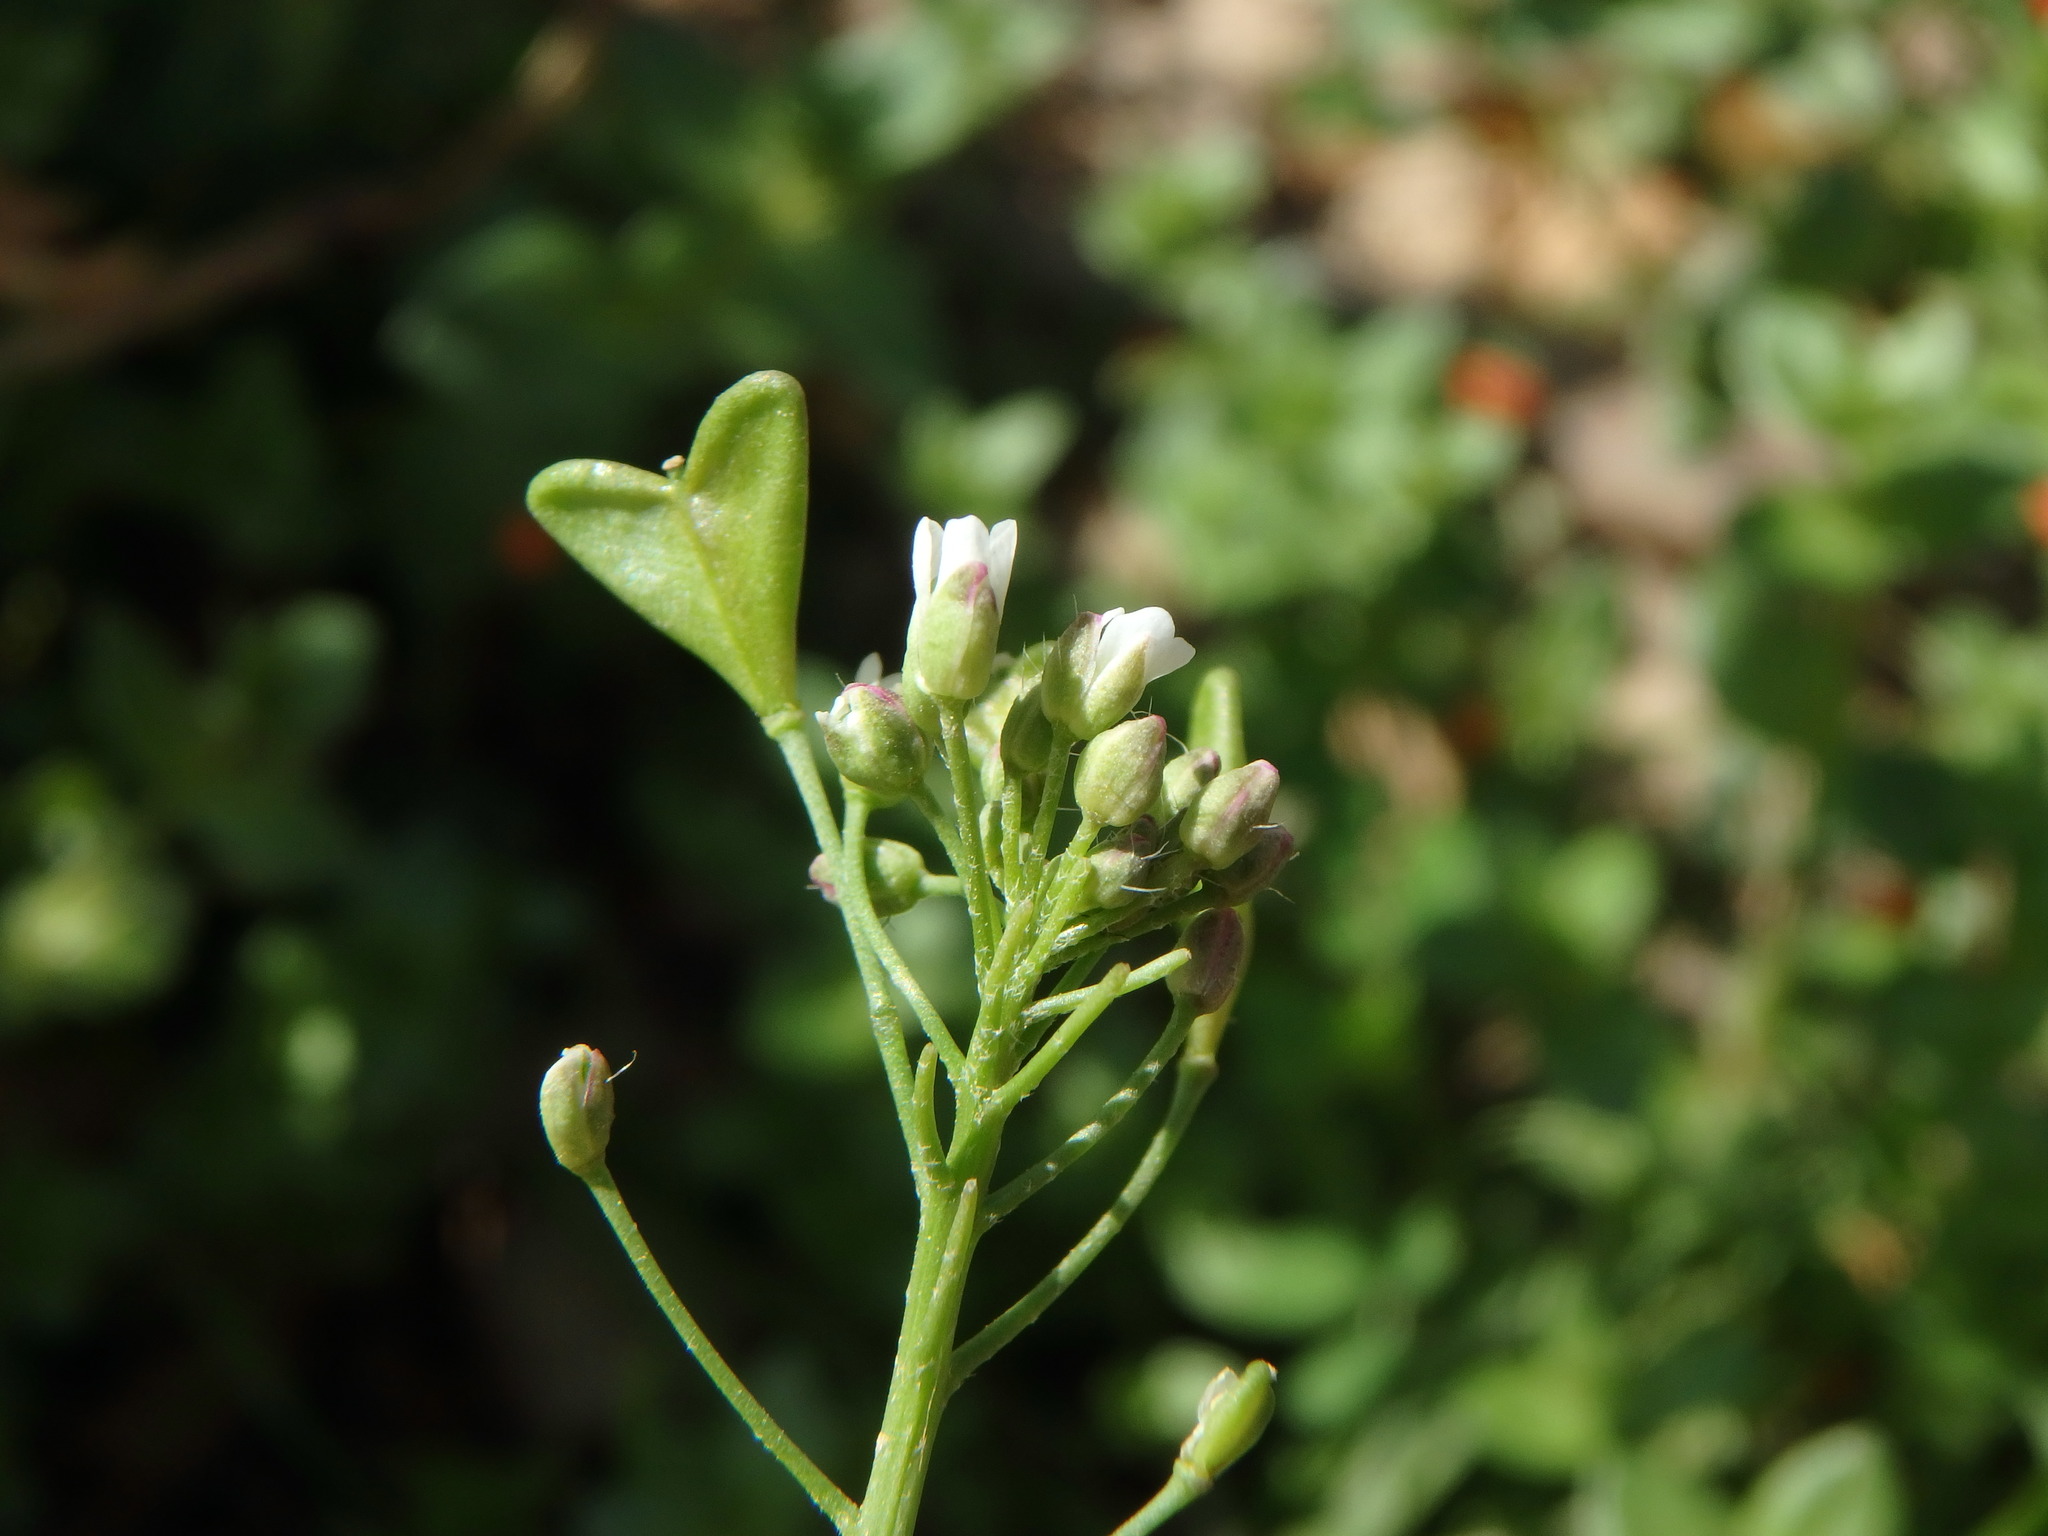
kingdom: Plantae
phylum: Tracheophyta
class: Magnoliopsida
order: Brassicales
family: Brassicaceae
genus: Capsella
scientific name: Capsella bursa-pastoris
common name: Shepherd's purse
